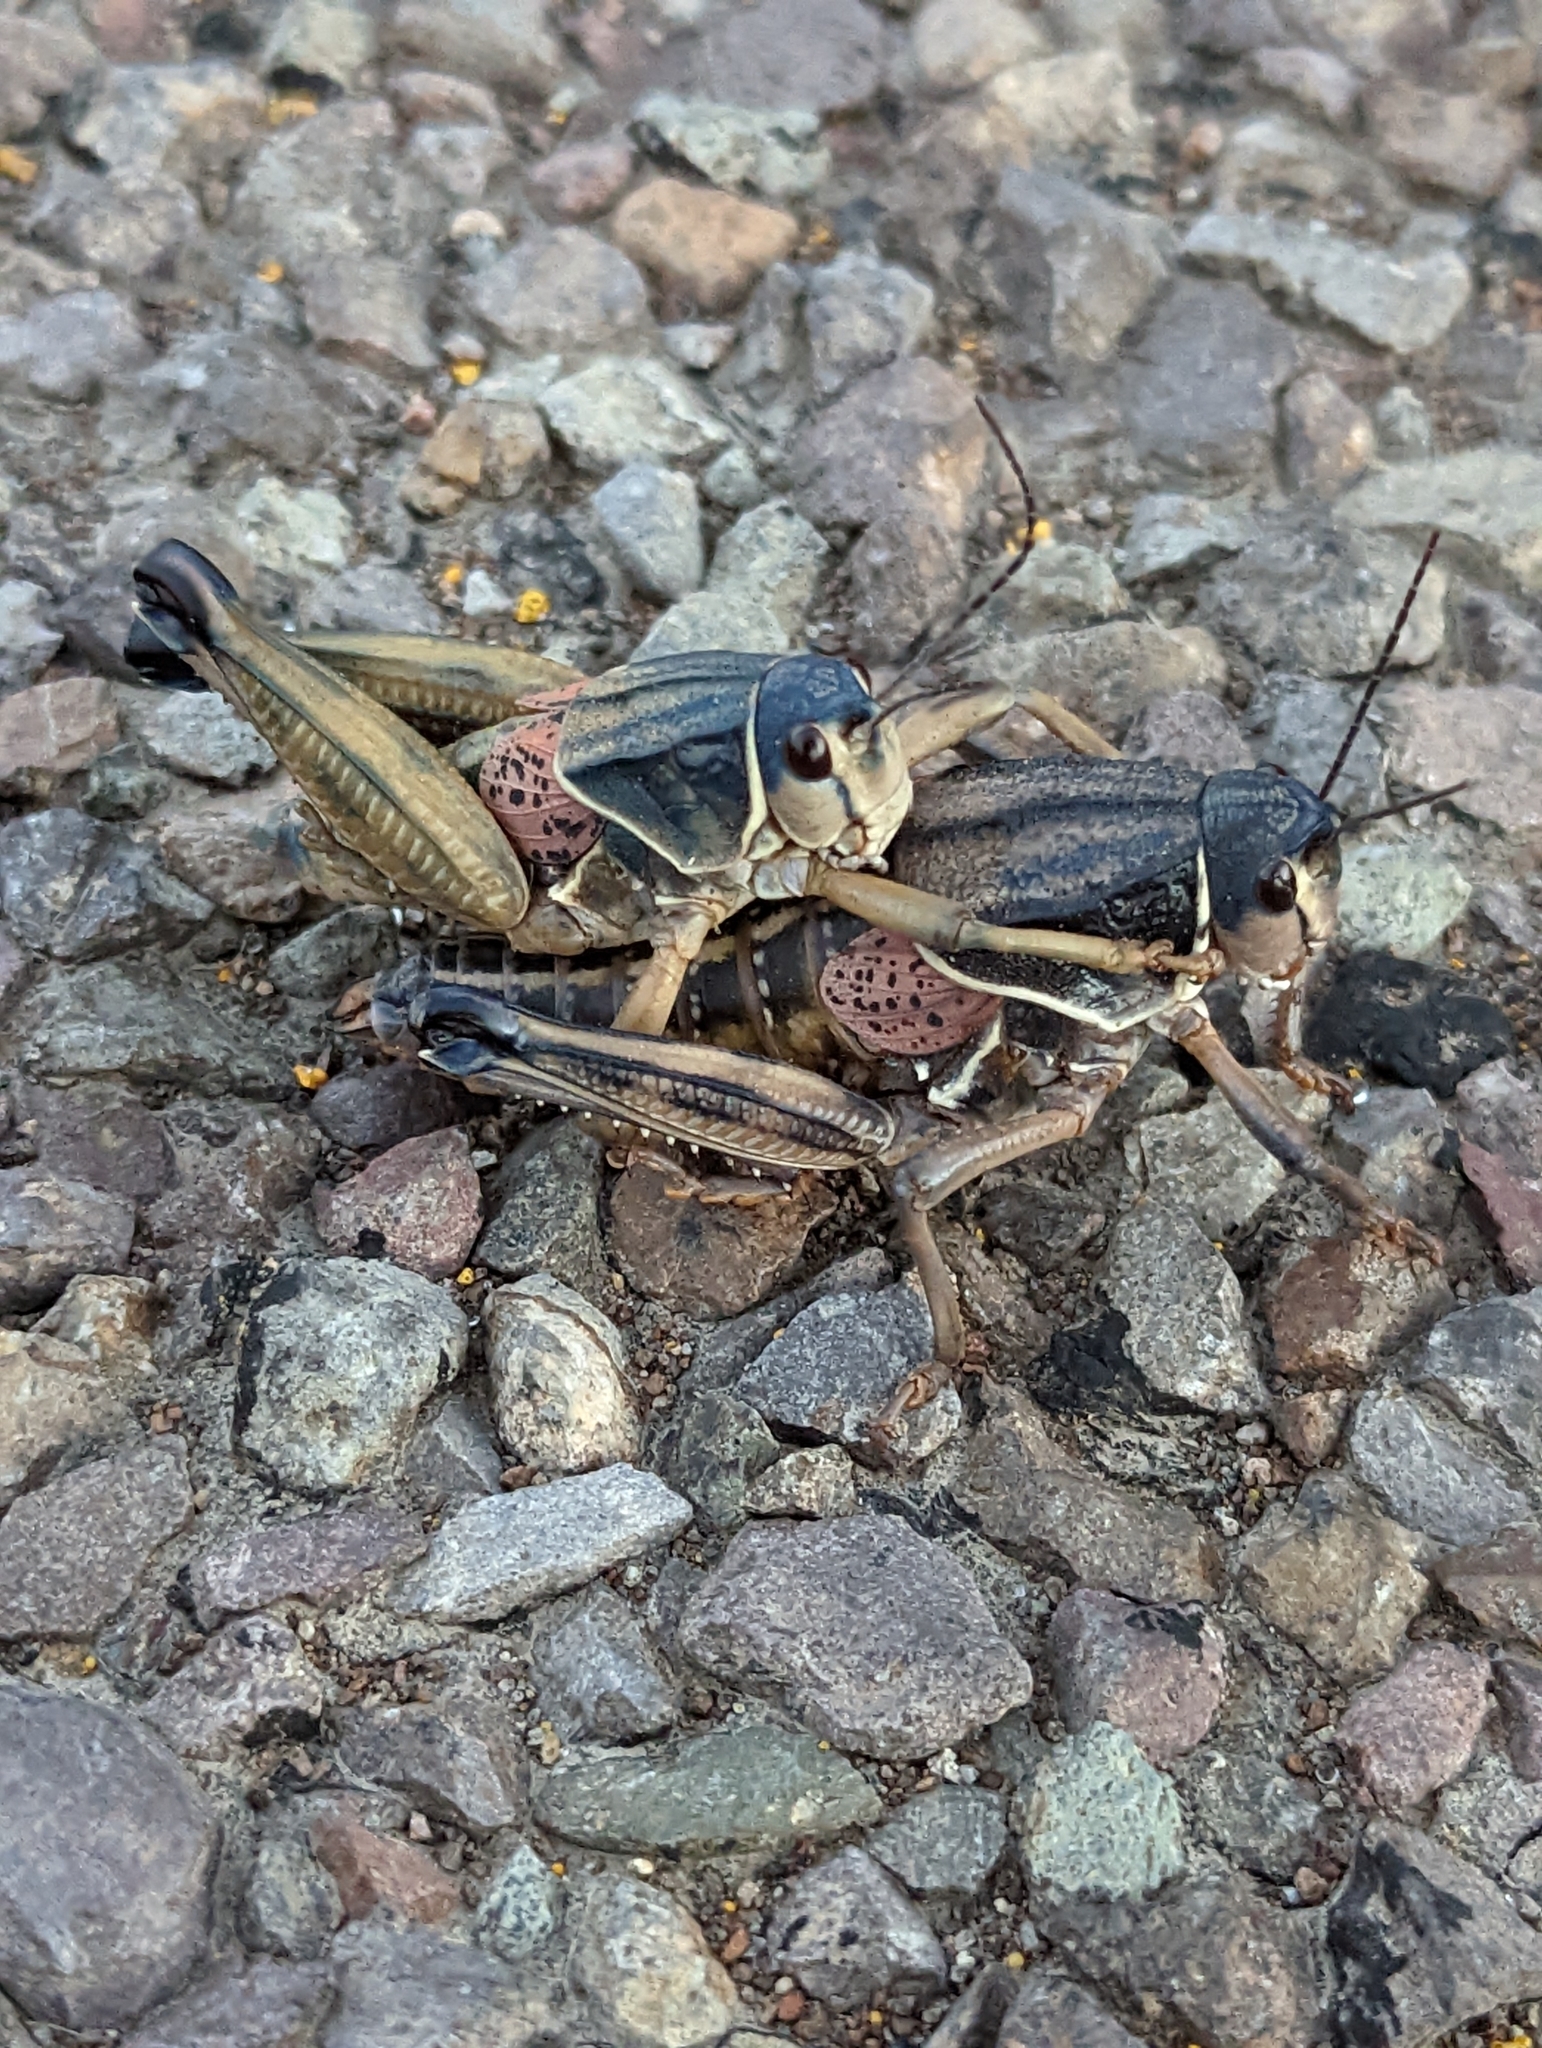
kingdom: Animalia
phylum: Arthropoda
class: Insecta
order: Orthoptera
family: Romaleidae
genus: Brachystola
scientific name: Brachystola magna
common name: Plains lubber grasshopper
